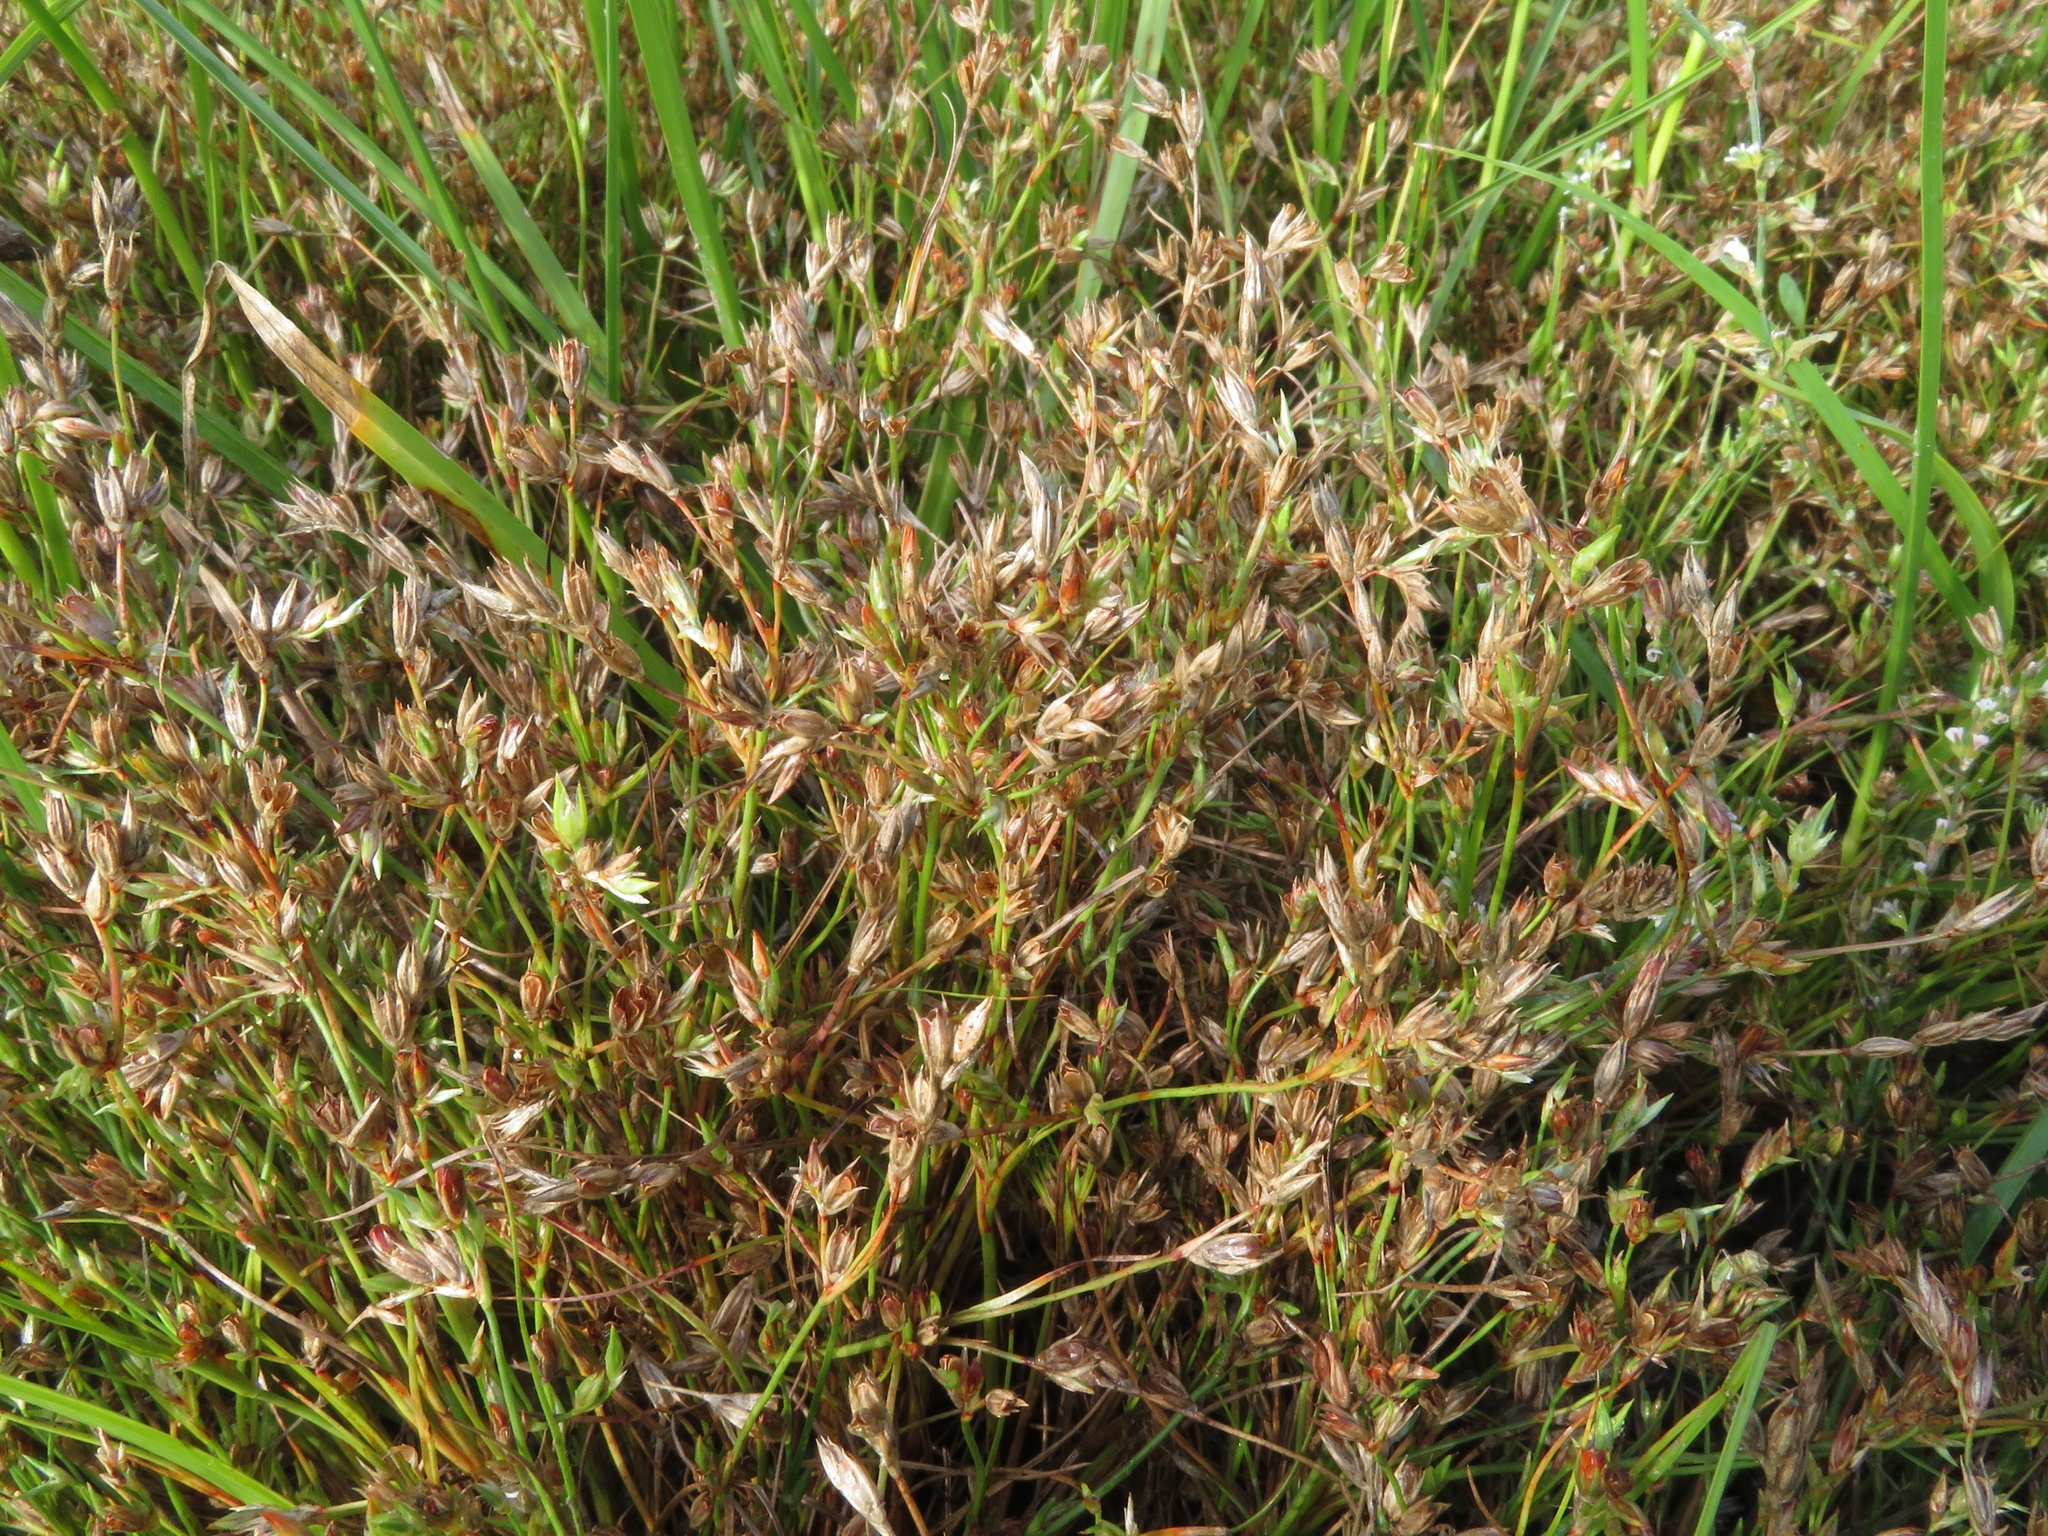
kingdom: Plantae
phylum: Tracheophyta
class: Liliopsida
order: Poales
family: Juncaceae
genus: Juncus
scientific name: Juncus ranarius
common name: Frog rush
